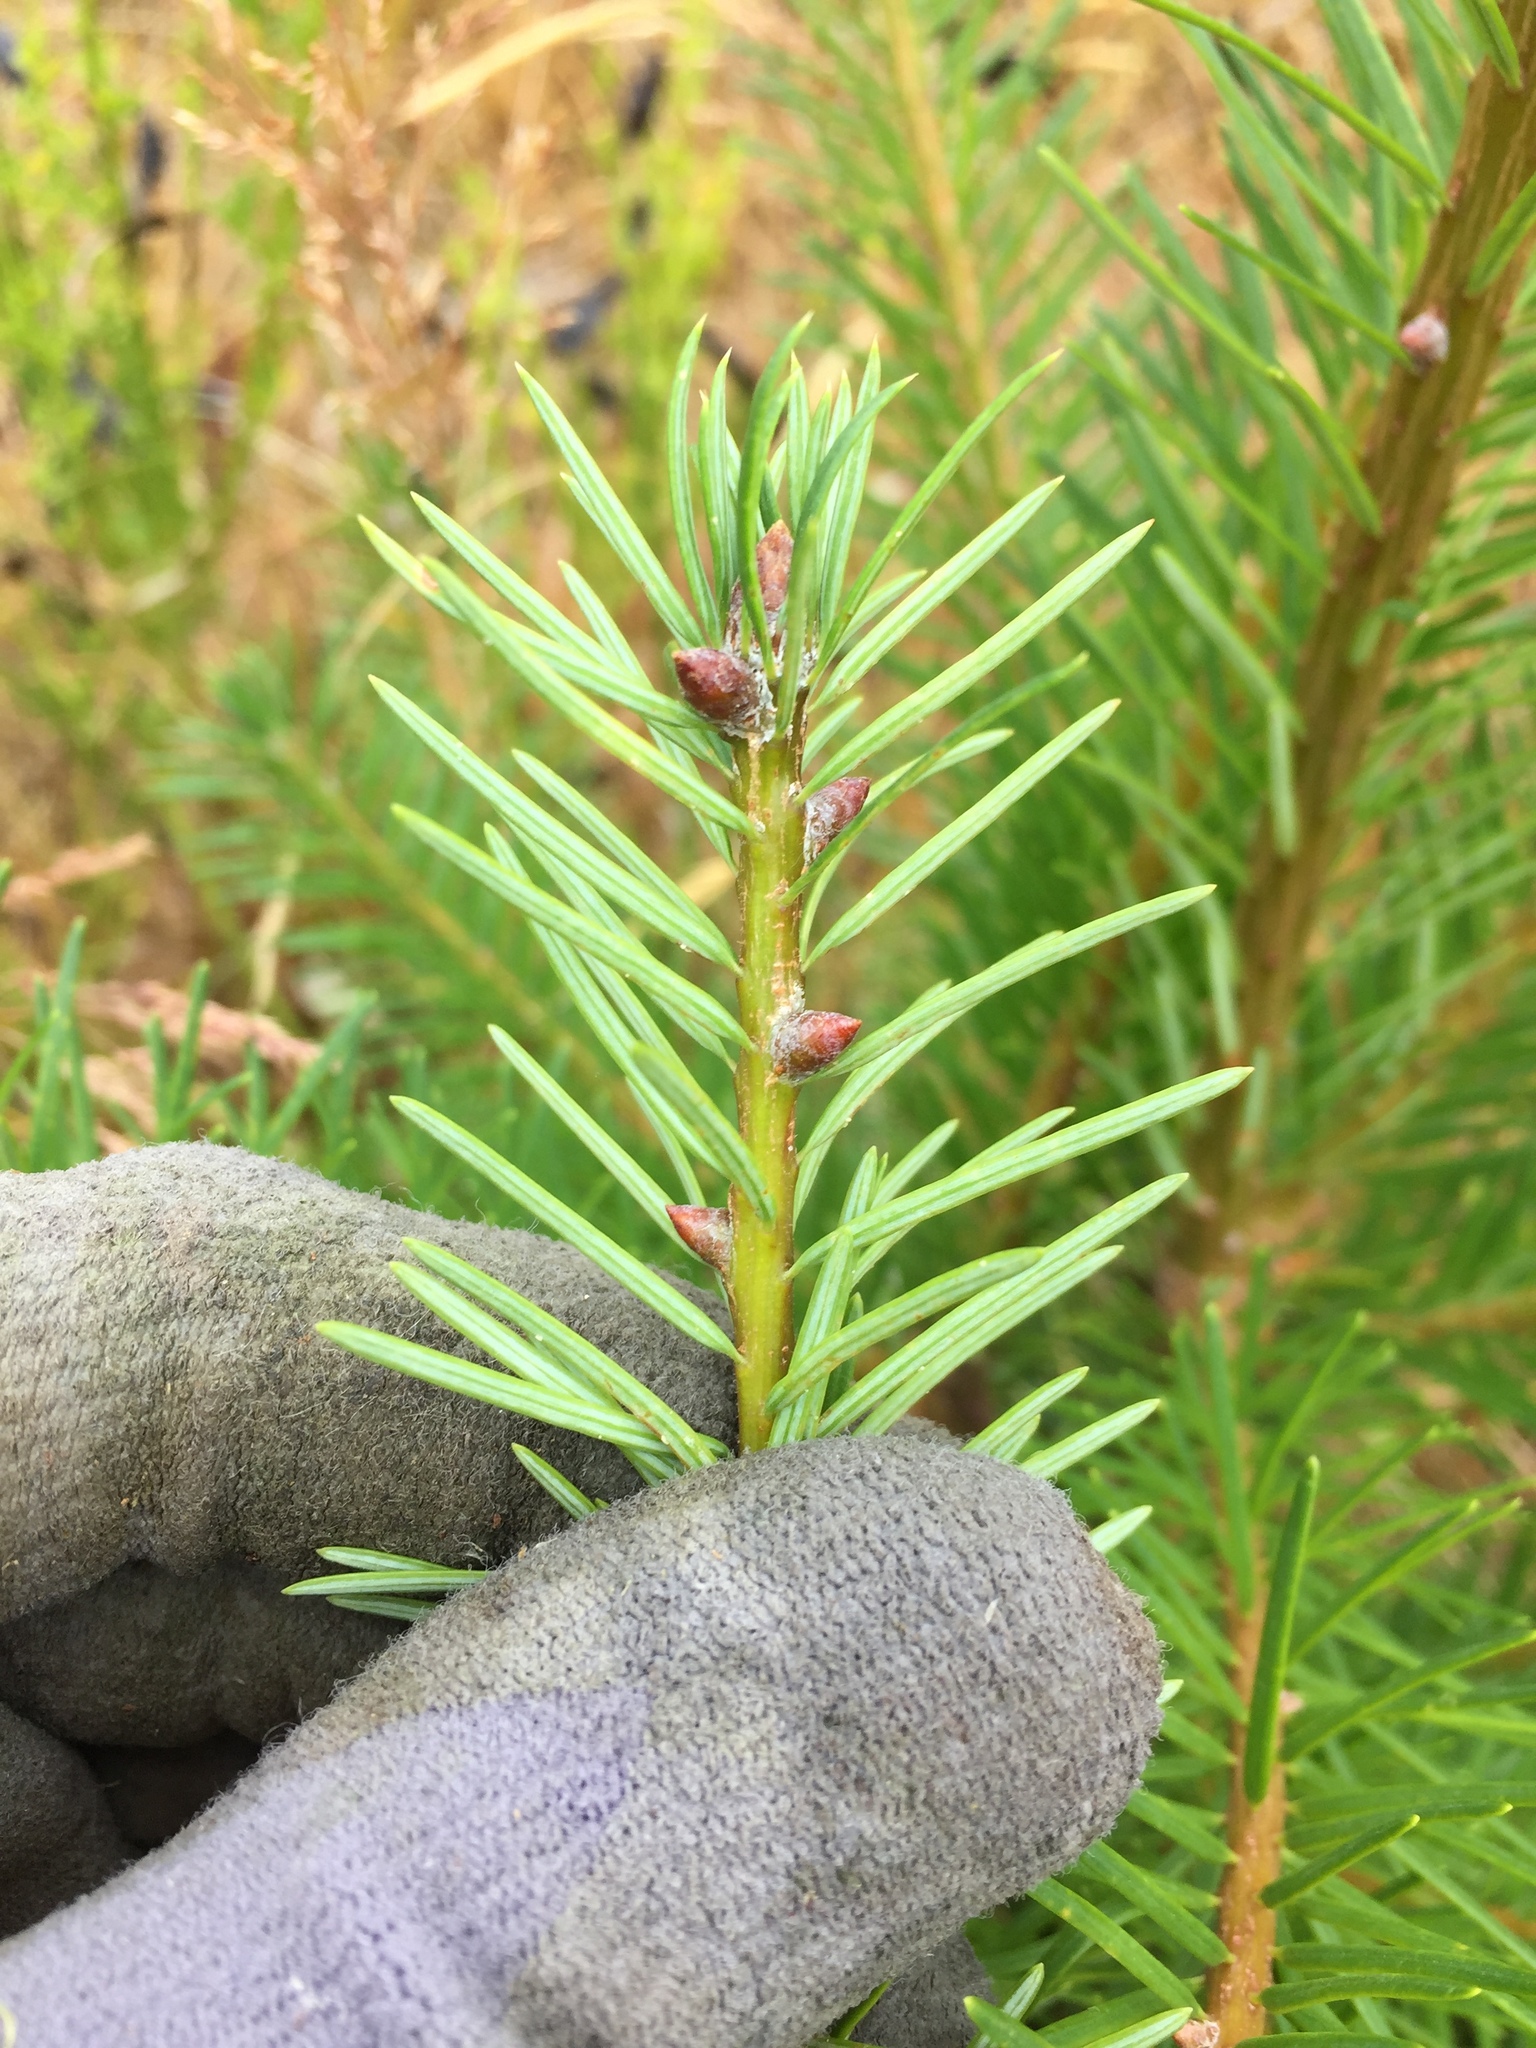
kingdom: Plantae
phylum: Tracheophyta
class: Pinopsida
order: Pinales
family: Pinaceae
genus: Pseudotsuga
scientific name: Pseudotsuga menziesii
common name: Douglas fir
